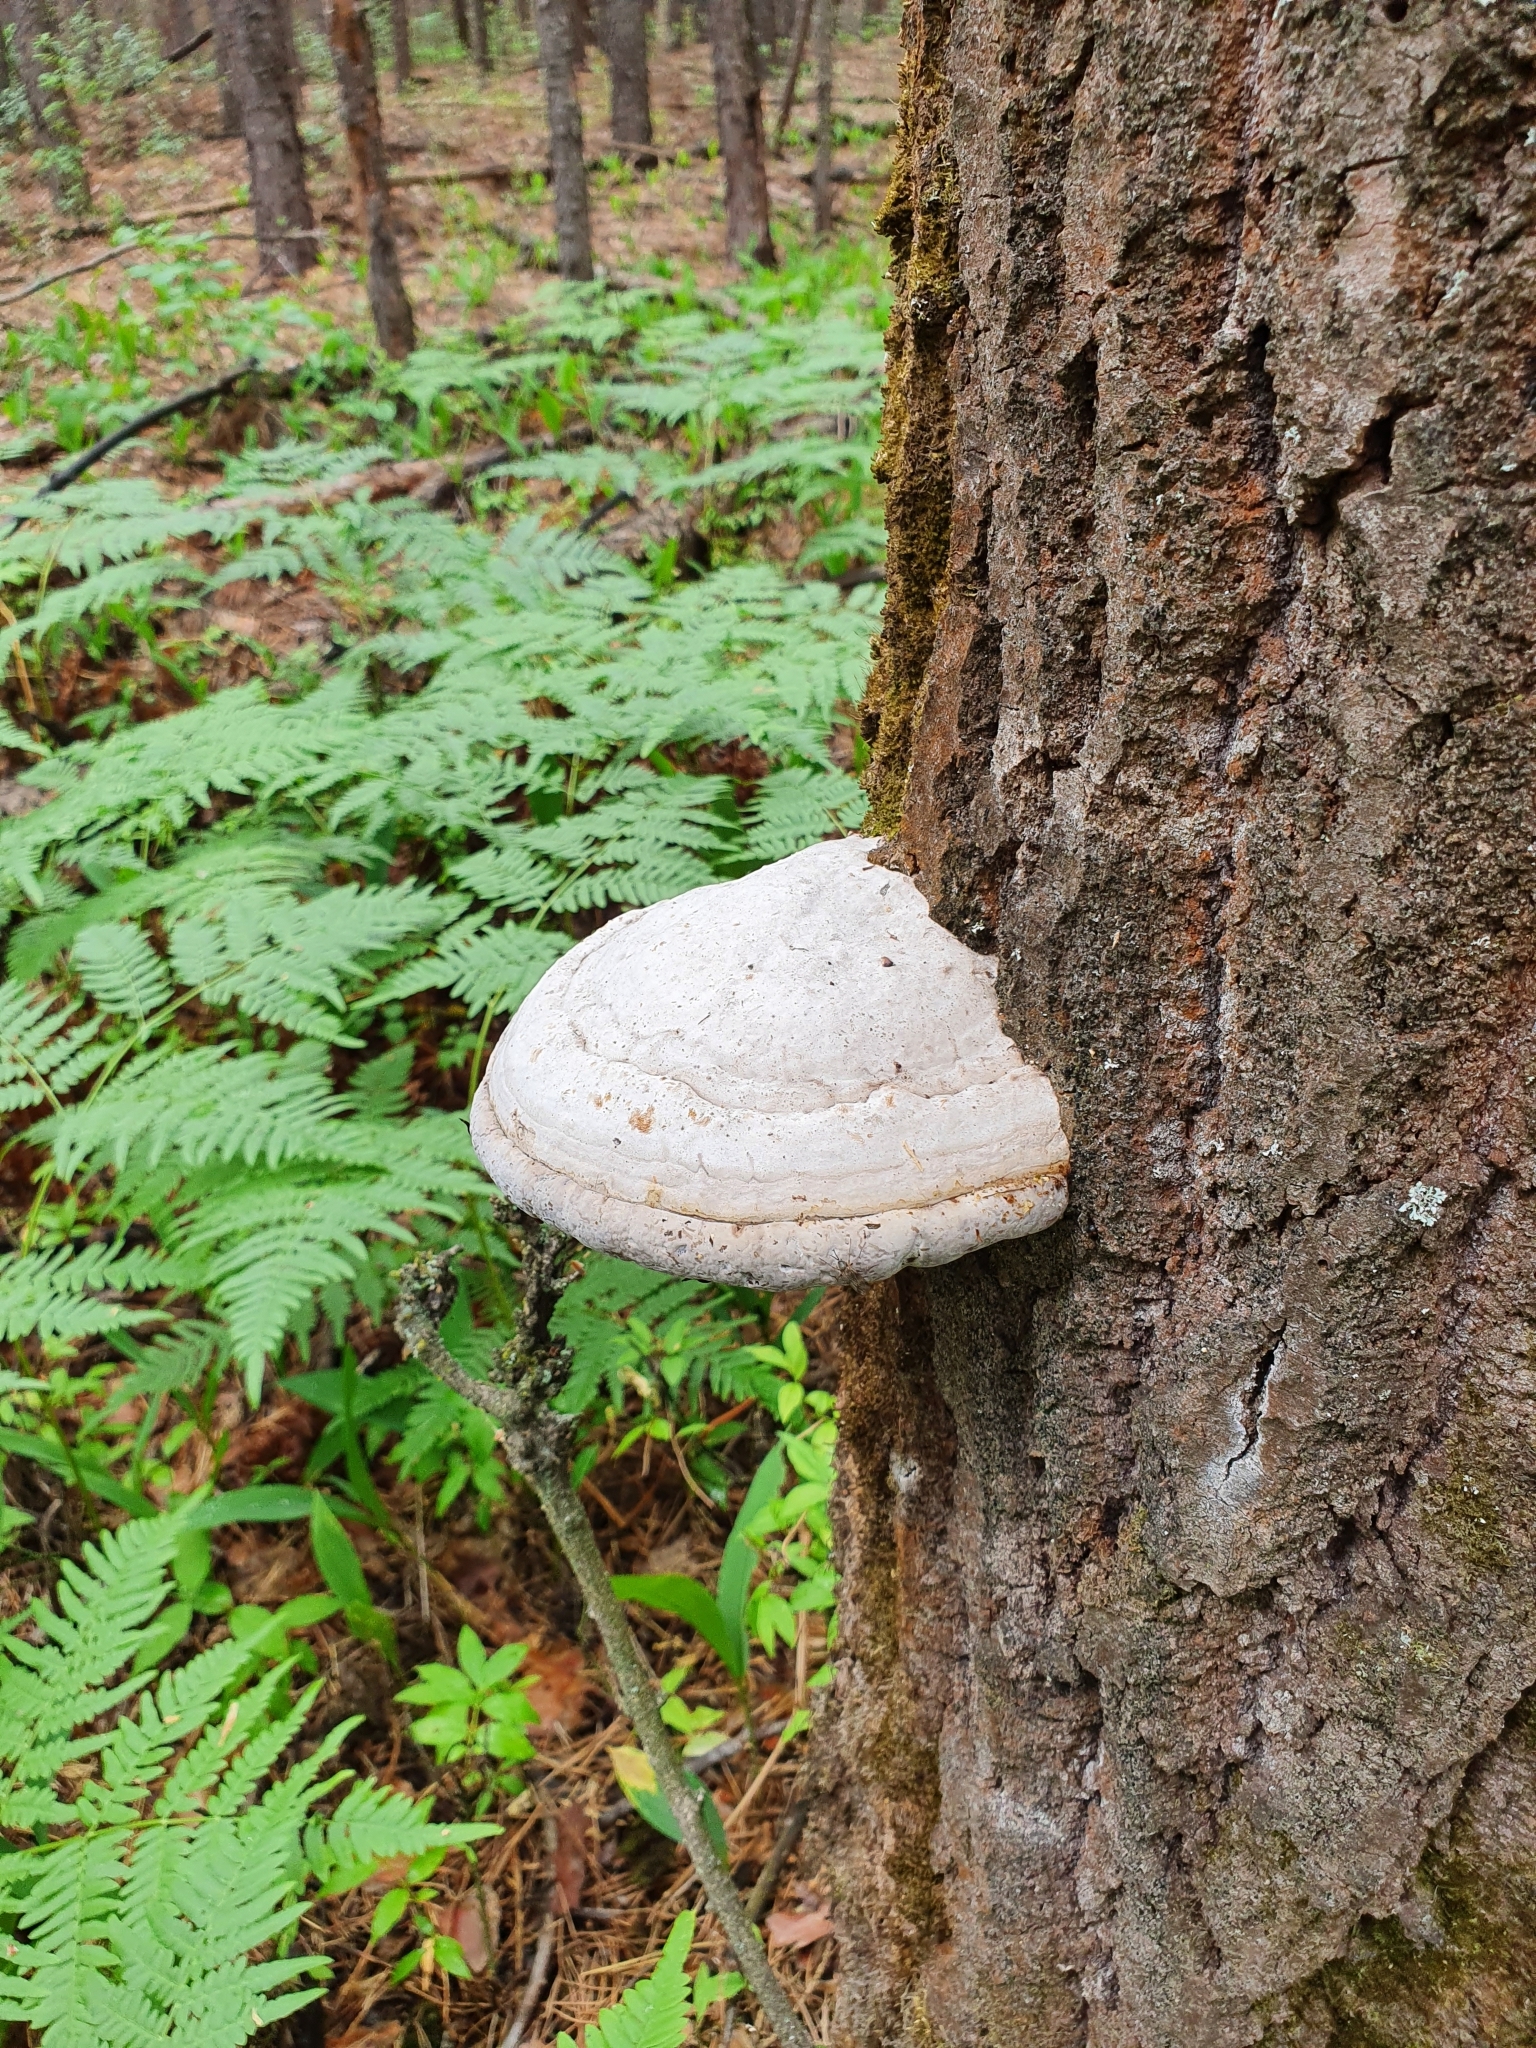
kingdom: Fungi
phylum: Basidiomycota
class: Agaricomycetes
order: Polyporales
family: Polyporaceae
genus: Fomes
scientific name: Fomes fomentarius
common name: Hoof fungus
